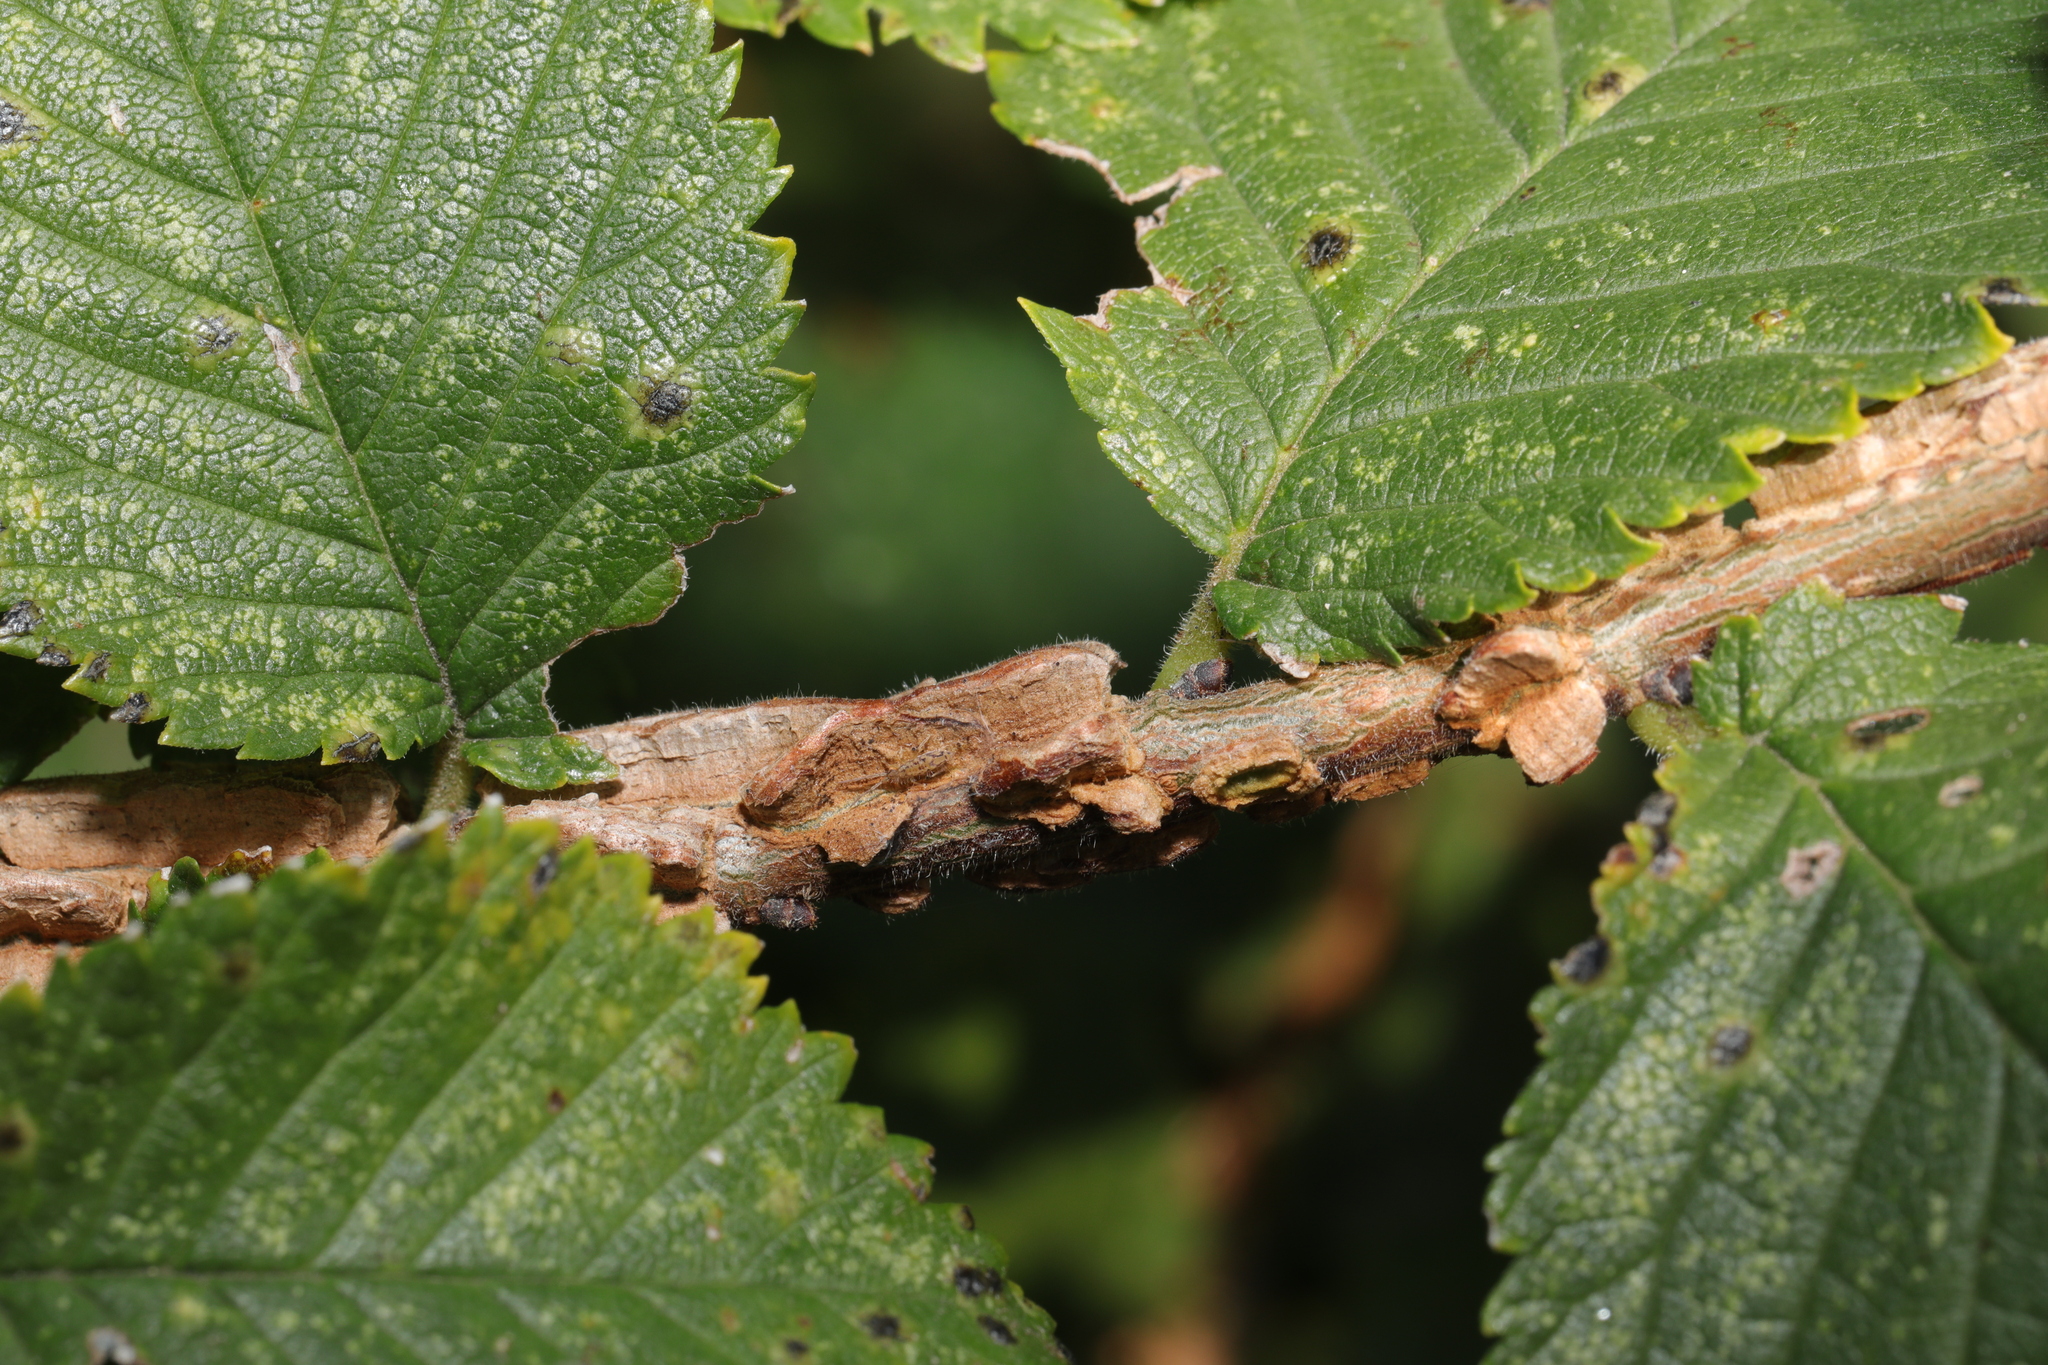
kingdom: Plantae
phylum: Tracheophyta
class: Magnoliopsida
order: Rosales
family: Ulmaceae
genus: Ulmus
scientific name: Ulmus minor
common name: Small-leaved elm
